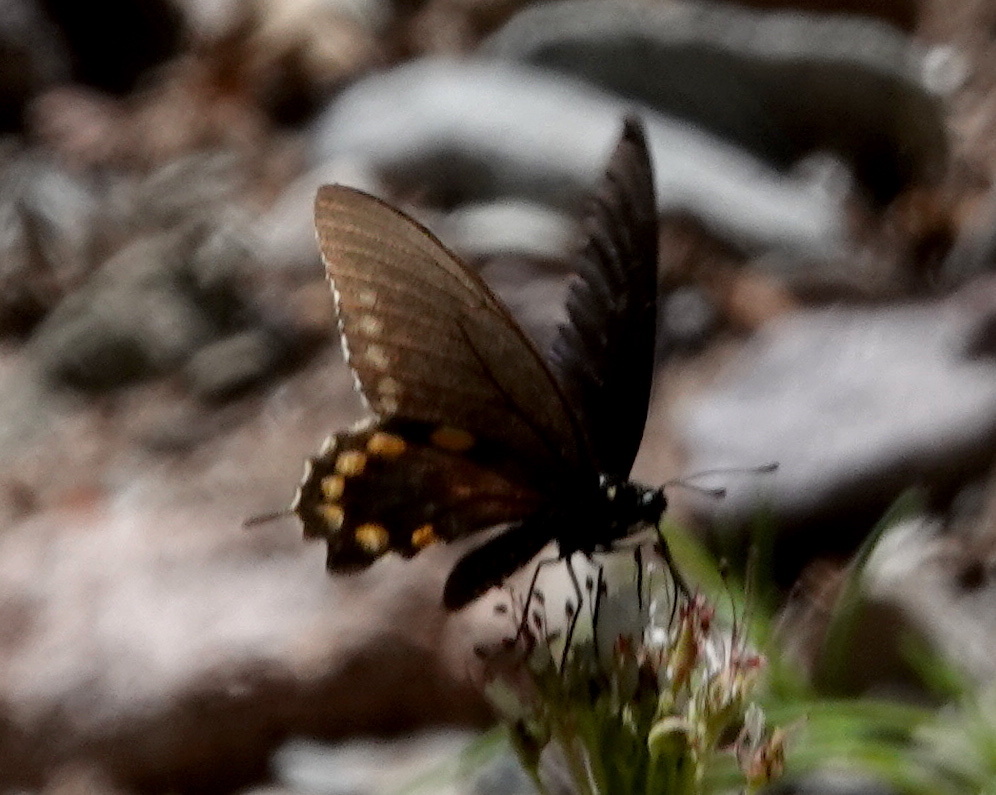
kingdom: Animalia
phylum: Arthropoda
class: Insecta
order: Lepidoptera
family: Papilionidae
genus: Battus
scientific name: Battus philenor
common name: Pipevine swallowtail
